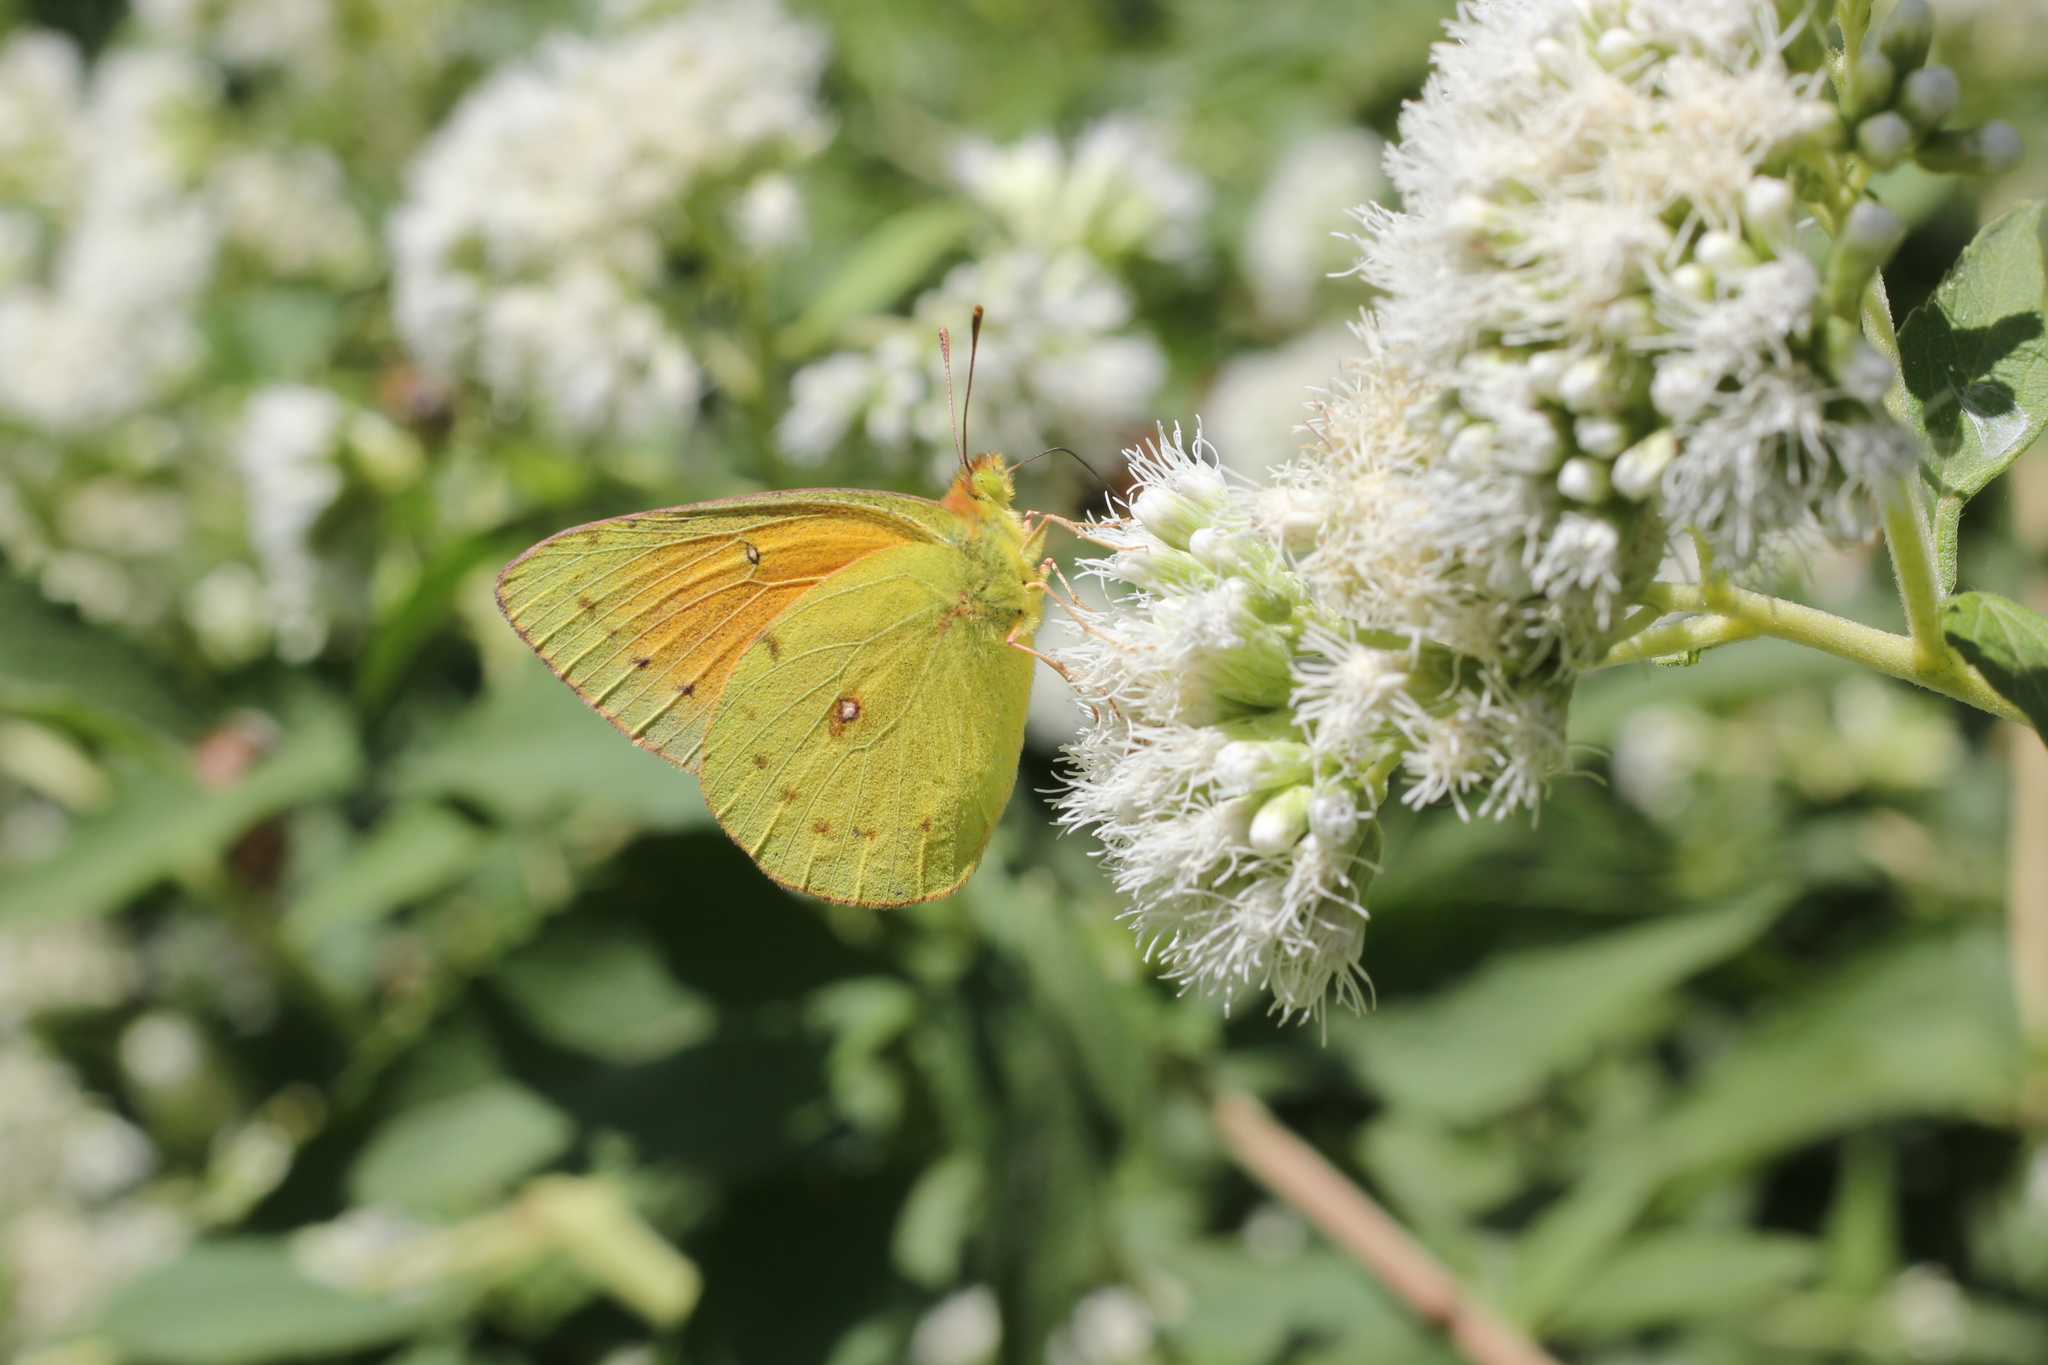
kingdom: Animalia
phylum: Arthropoda
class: Insecta
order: Lepidoptera
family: Pieridae
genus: Colias
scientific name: Colias lesbia
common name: Lesbia clouded yellow
